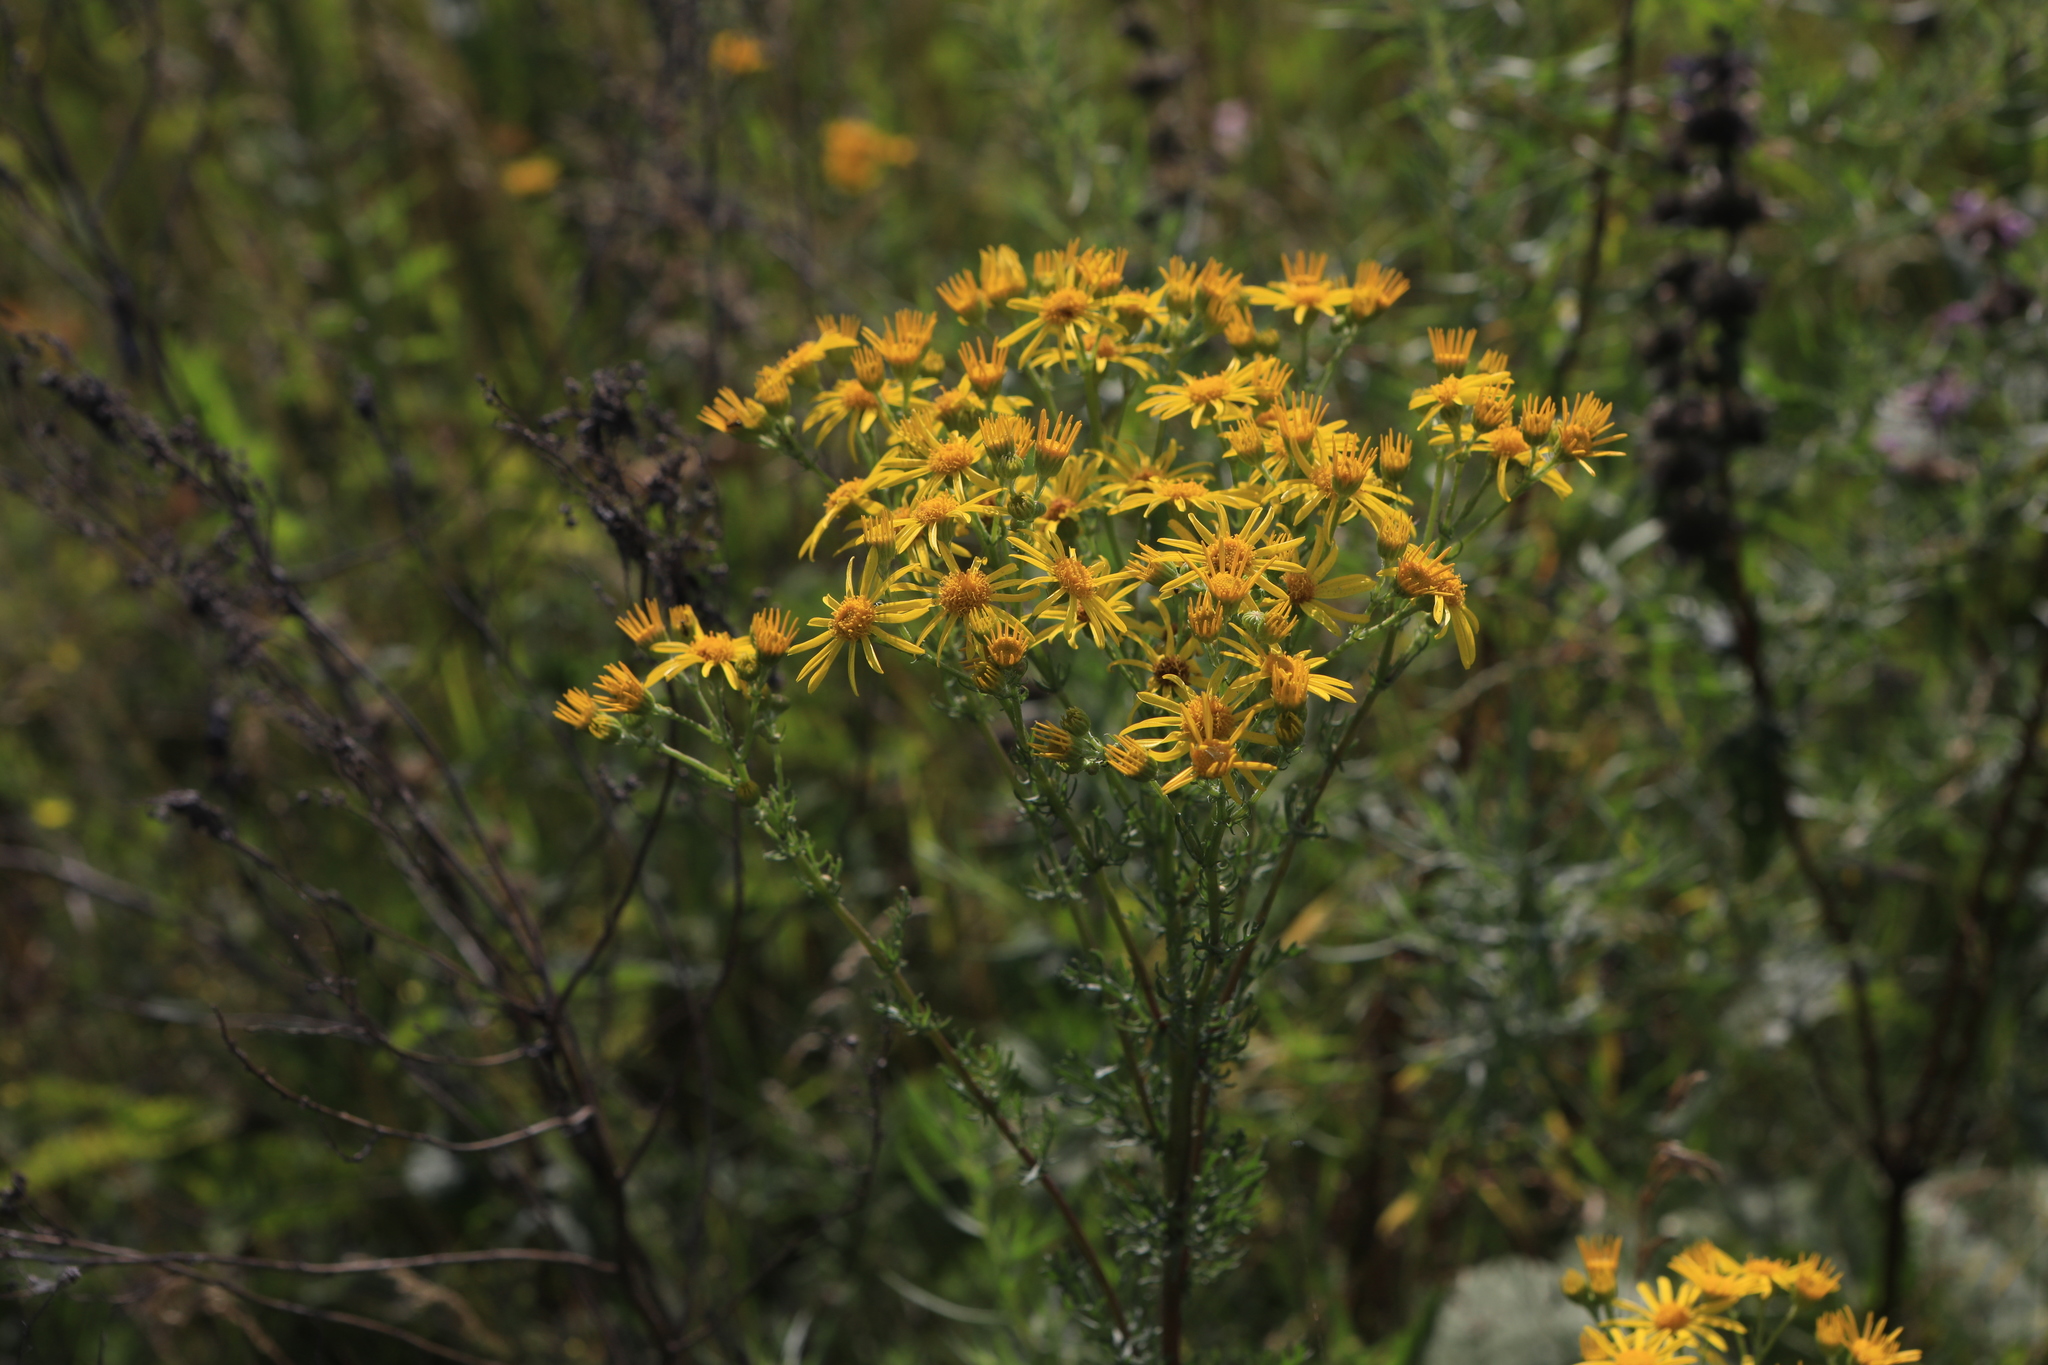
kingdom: Plantae
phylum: Tracheophyta
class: Magnoliopsida
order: Asterales
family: Asteraceae
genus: Jacobaea
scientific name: Jacobaea vulgaris
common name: Stinking willie
